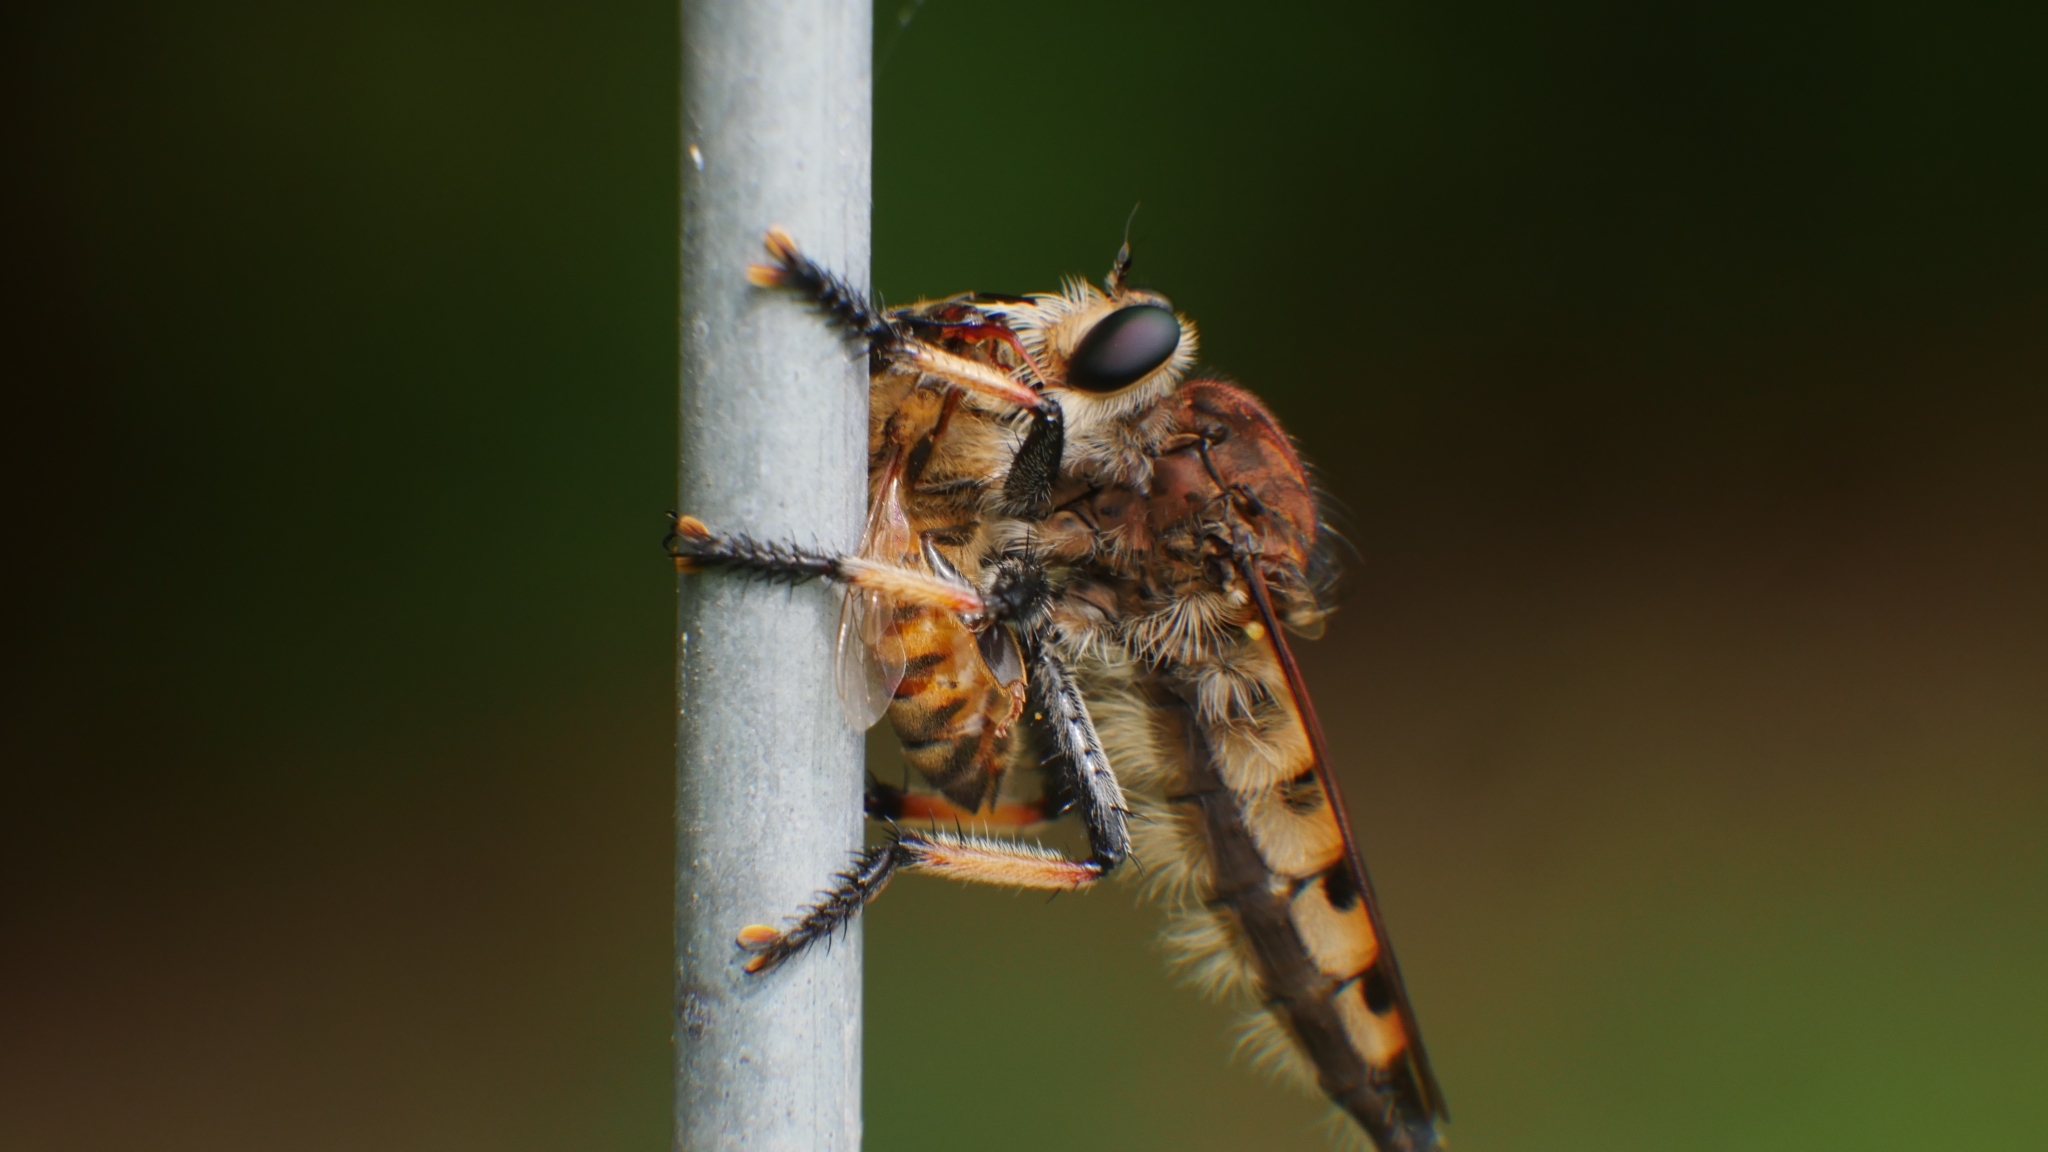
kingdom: Animalia
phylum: Arthropoda
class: Insecta
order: Diptera
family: Asilidae
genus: Promachus
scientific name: Promachus rufipes
